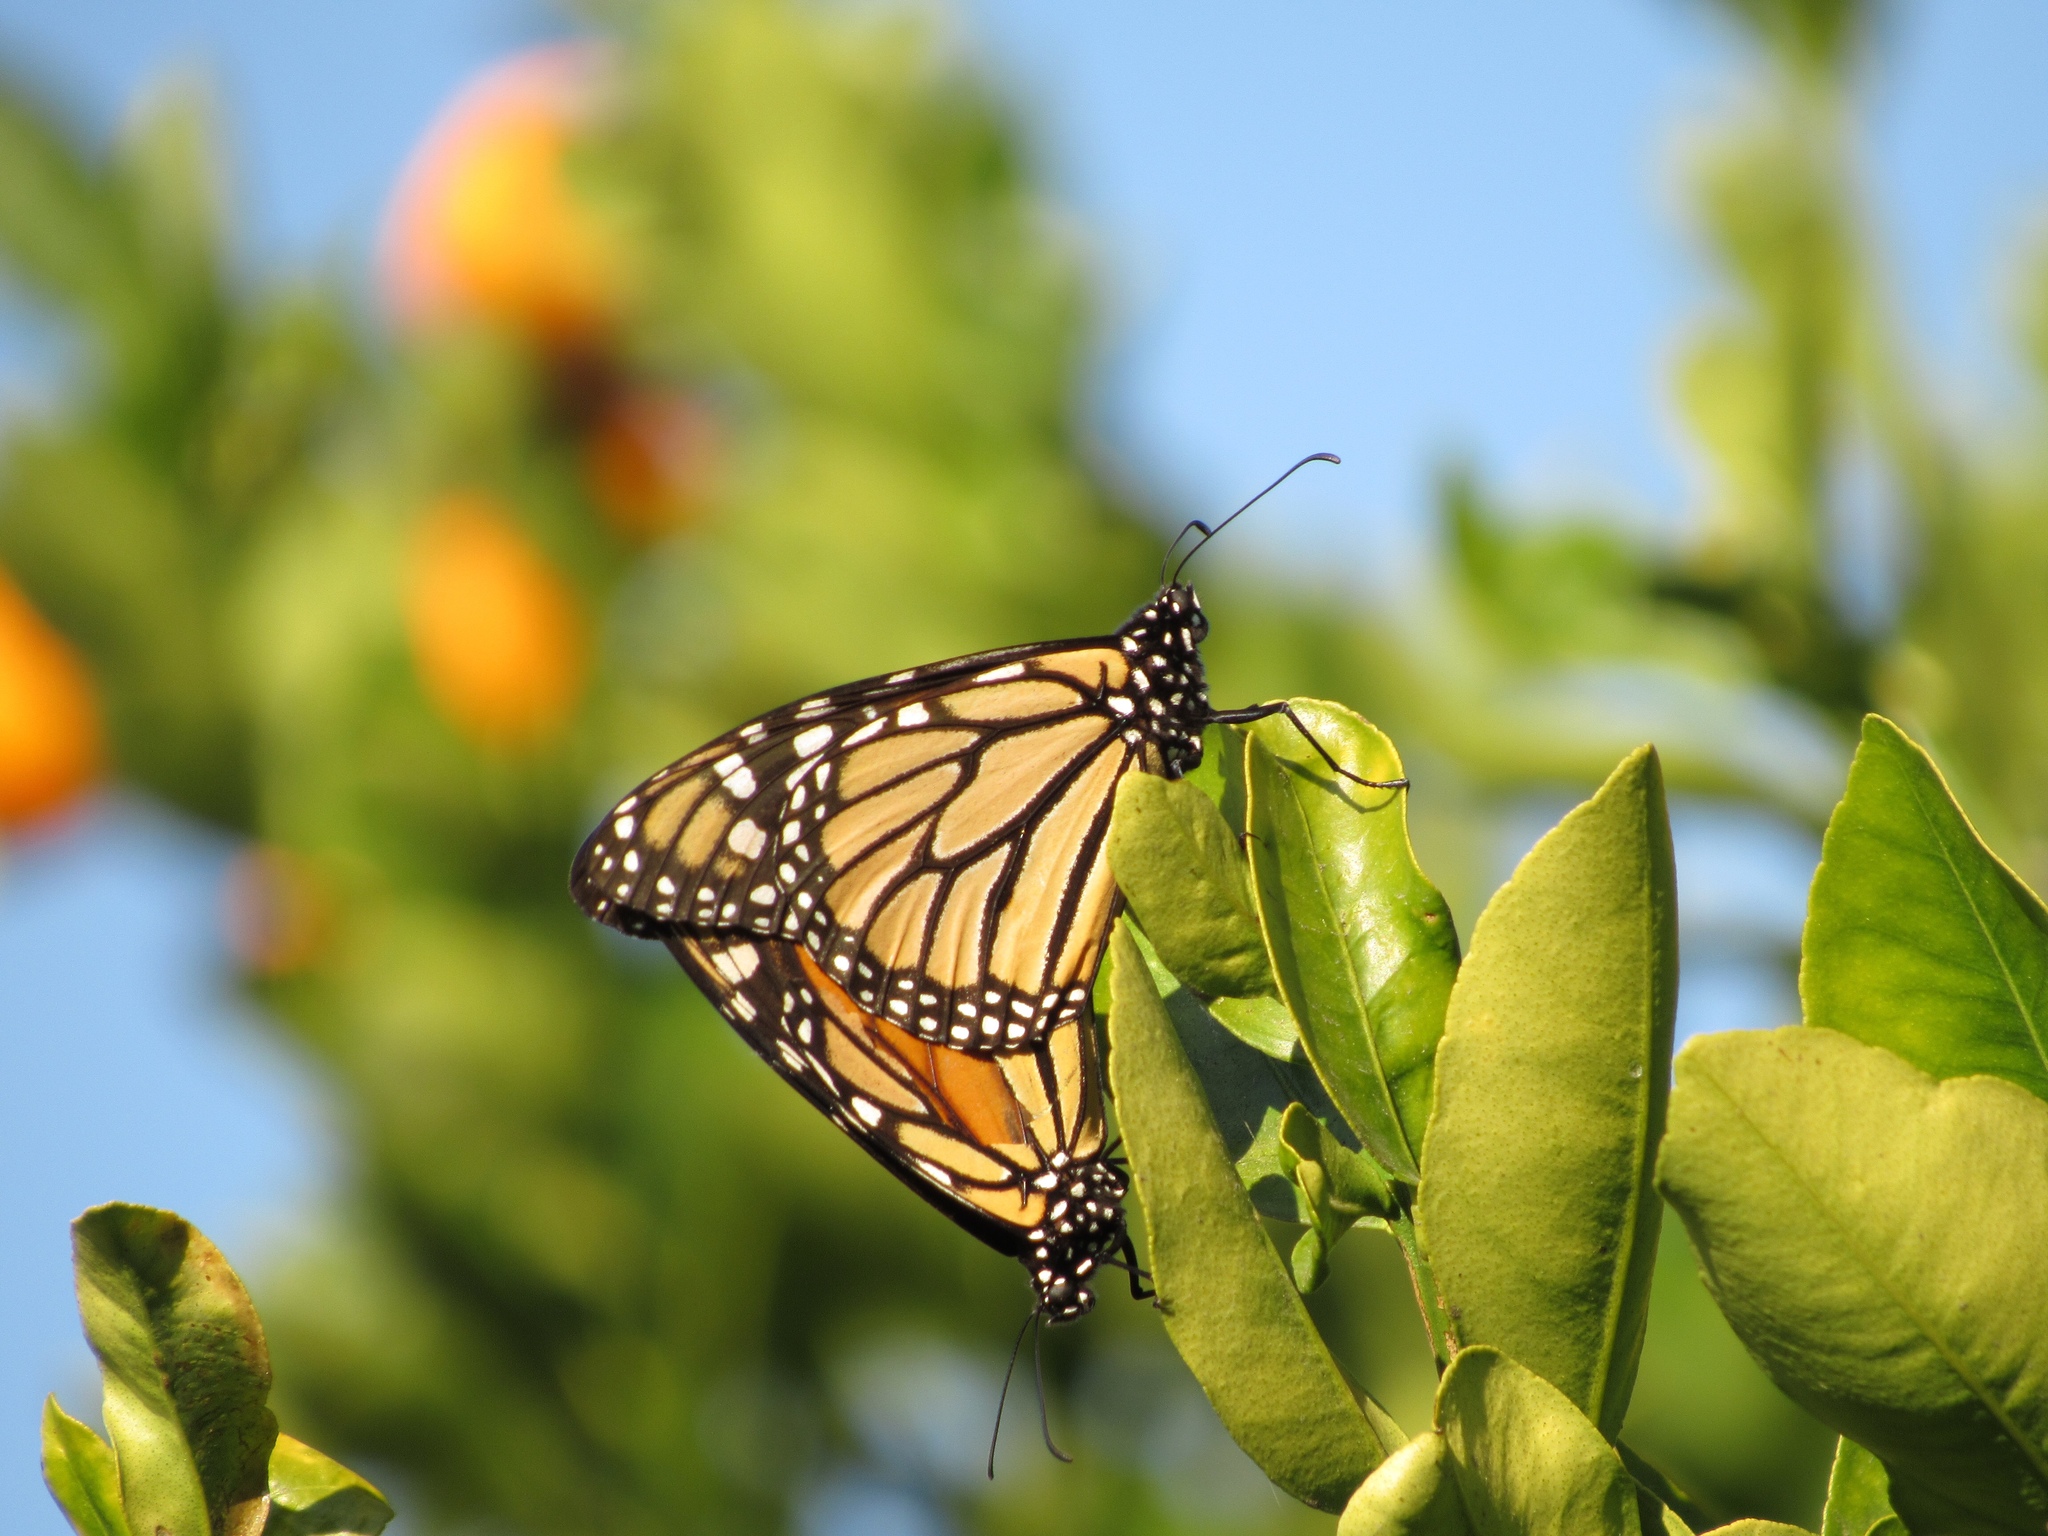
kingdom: Animalia
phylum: Arthropoda
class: Insecta
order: Lepidoptera
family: Nymphalidae
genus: Danaus
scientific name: Danaus plexippus
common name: Monarch
